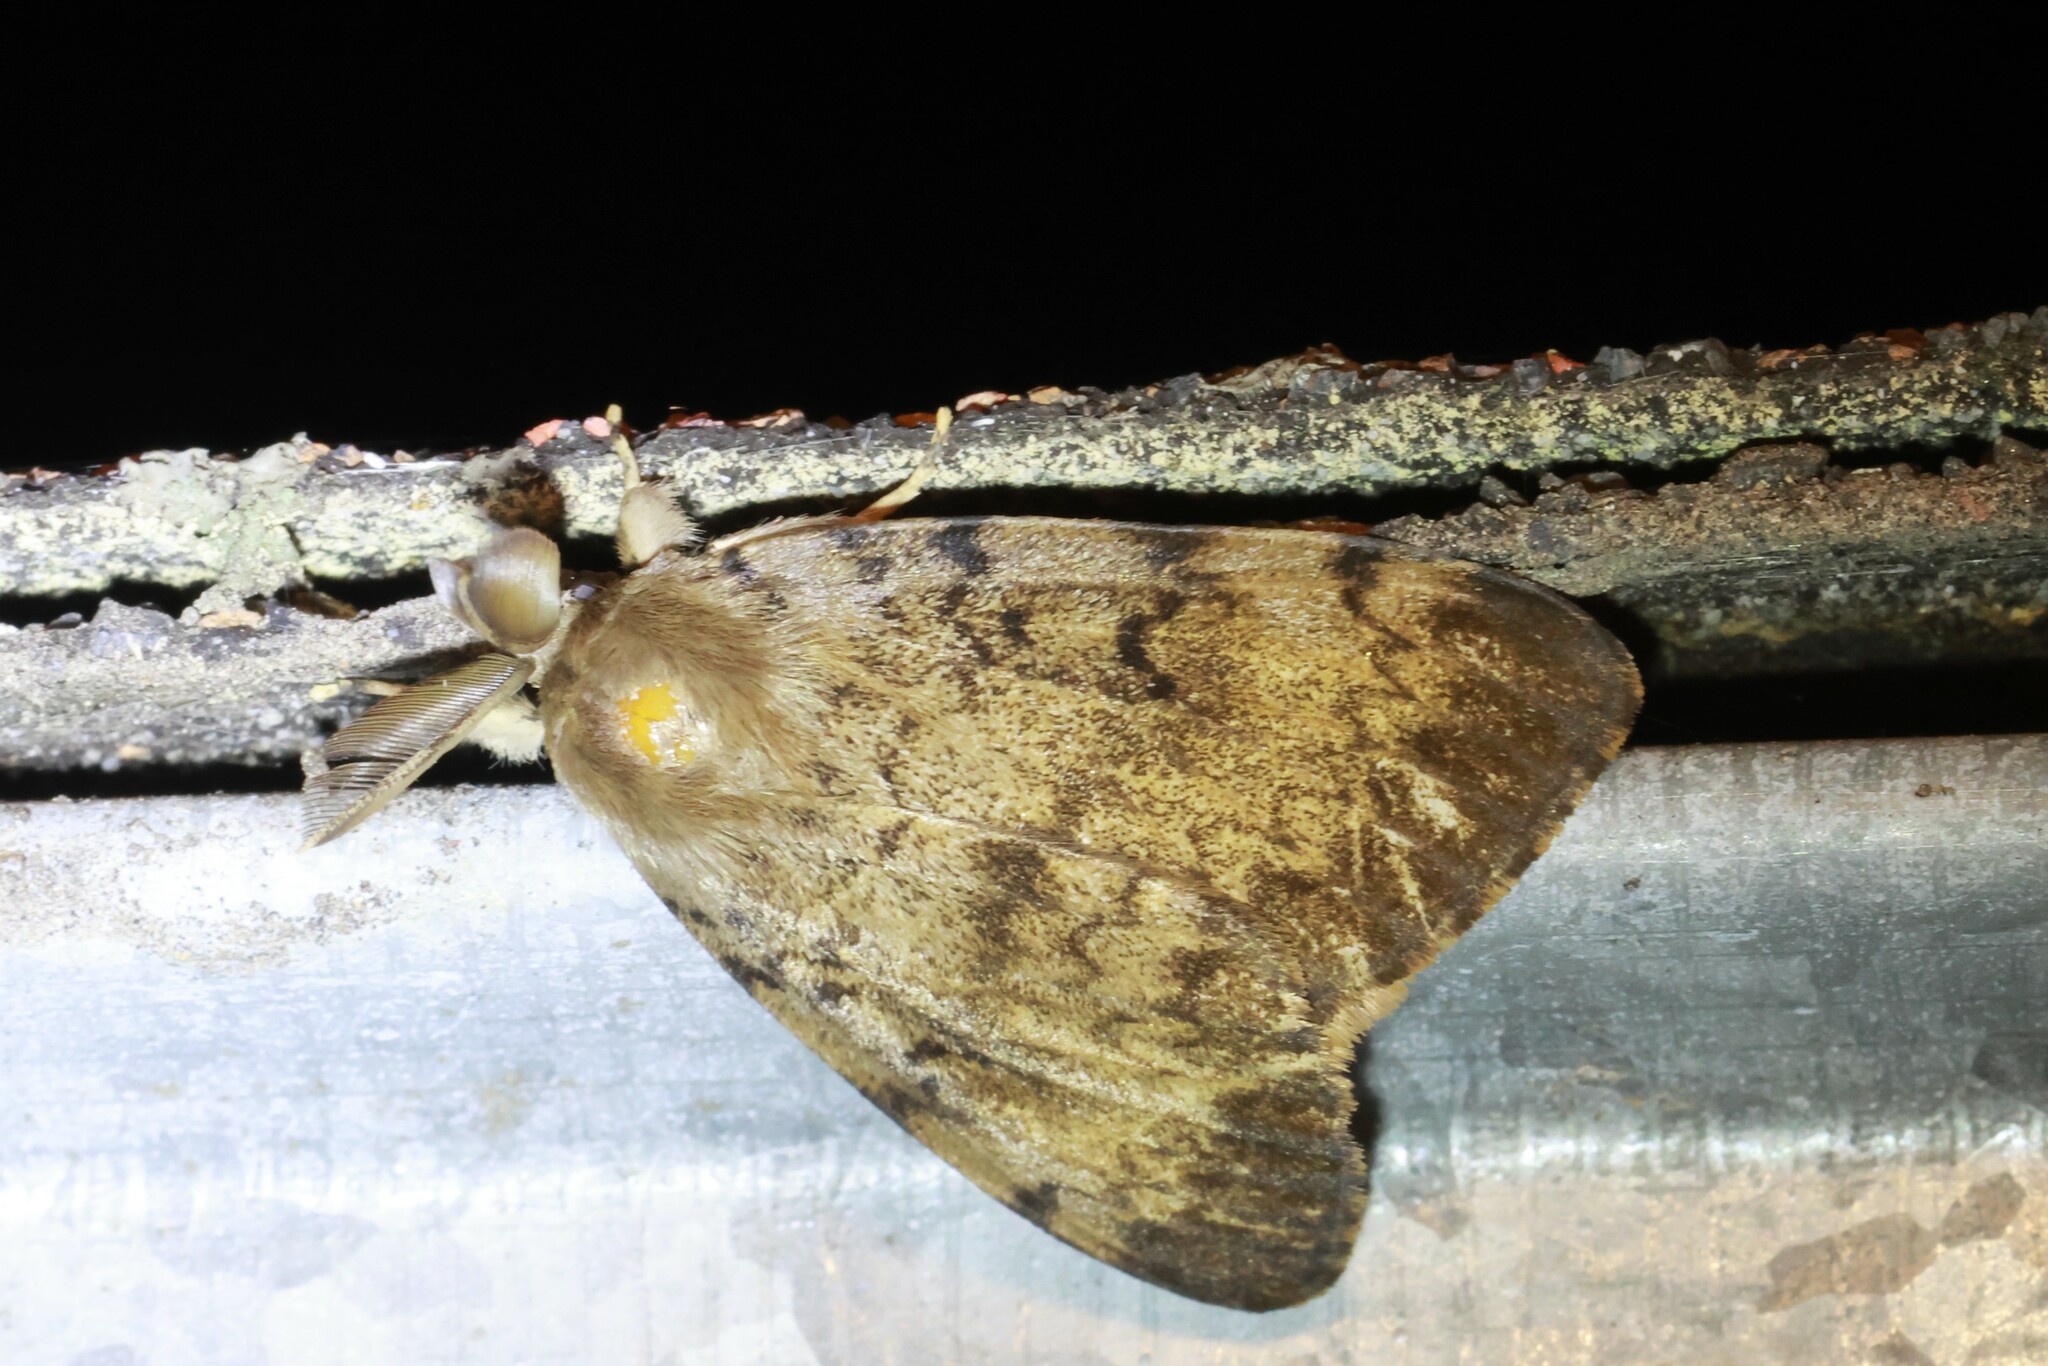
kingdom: Animalia
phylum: Arthropoda
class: Insecta
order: Lepidoptera
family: Erebidae
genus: Lymantria
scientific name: Lymantria dispar
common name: Gypsy moth
